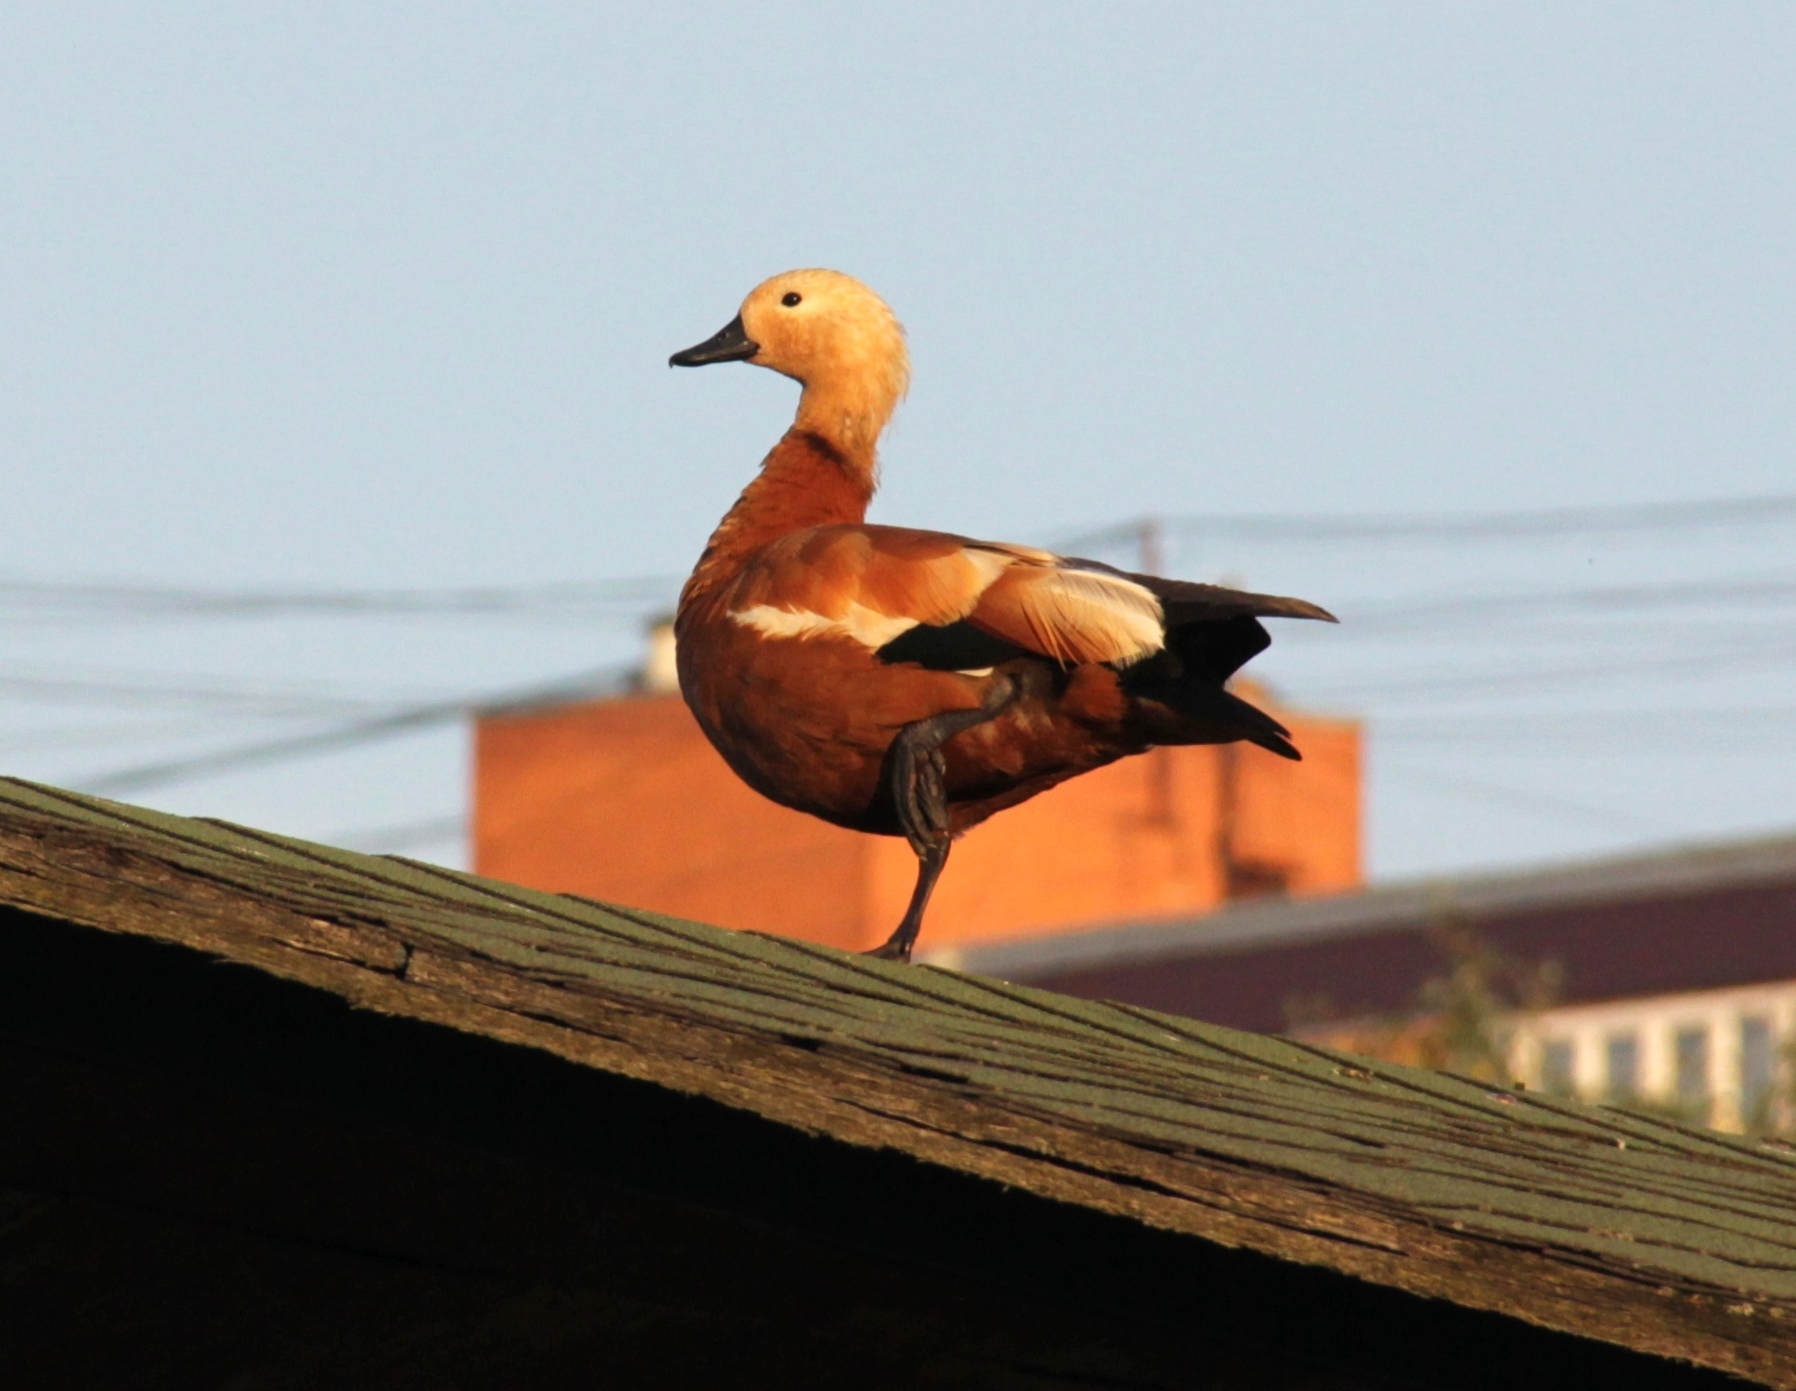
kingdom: Animalia
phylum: Chordata
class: Aves
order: Anseriformes
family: Anatidae
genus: Tadorna
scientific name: Tadorna ferruginea
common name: Ruddy shelduck
